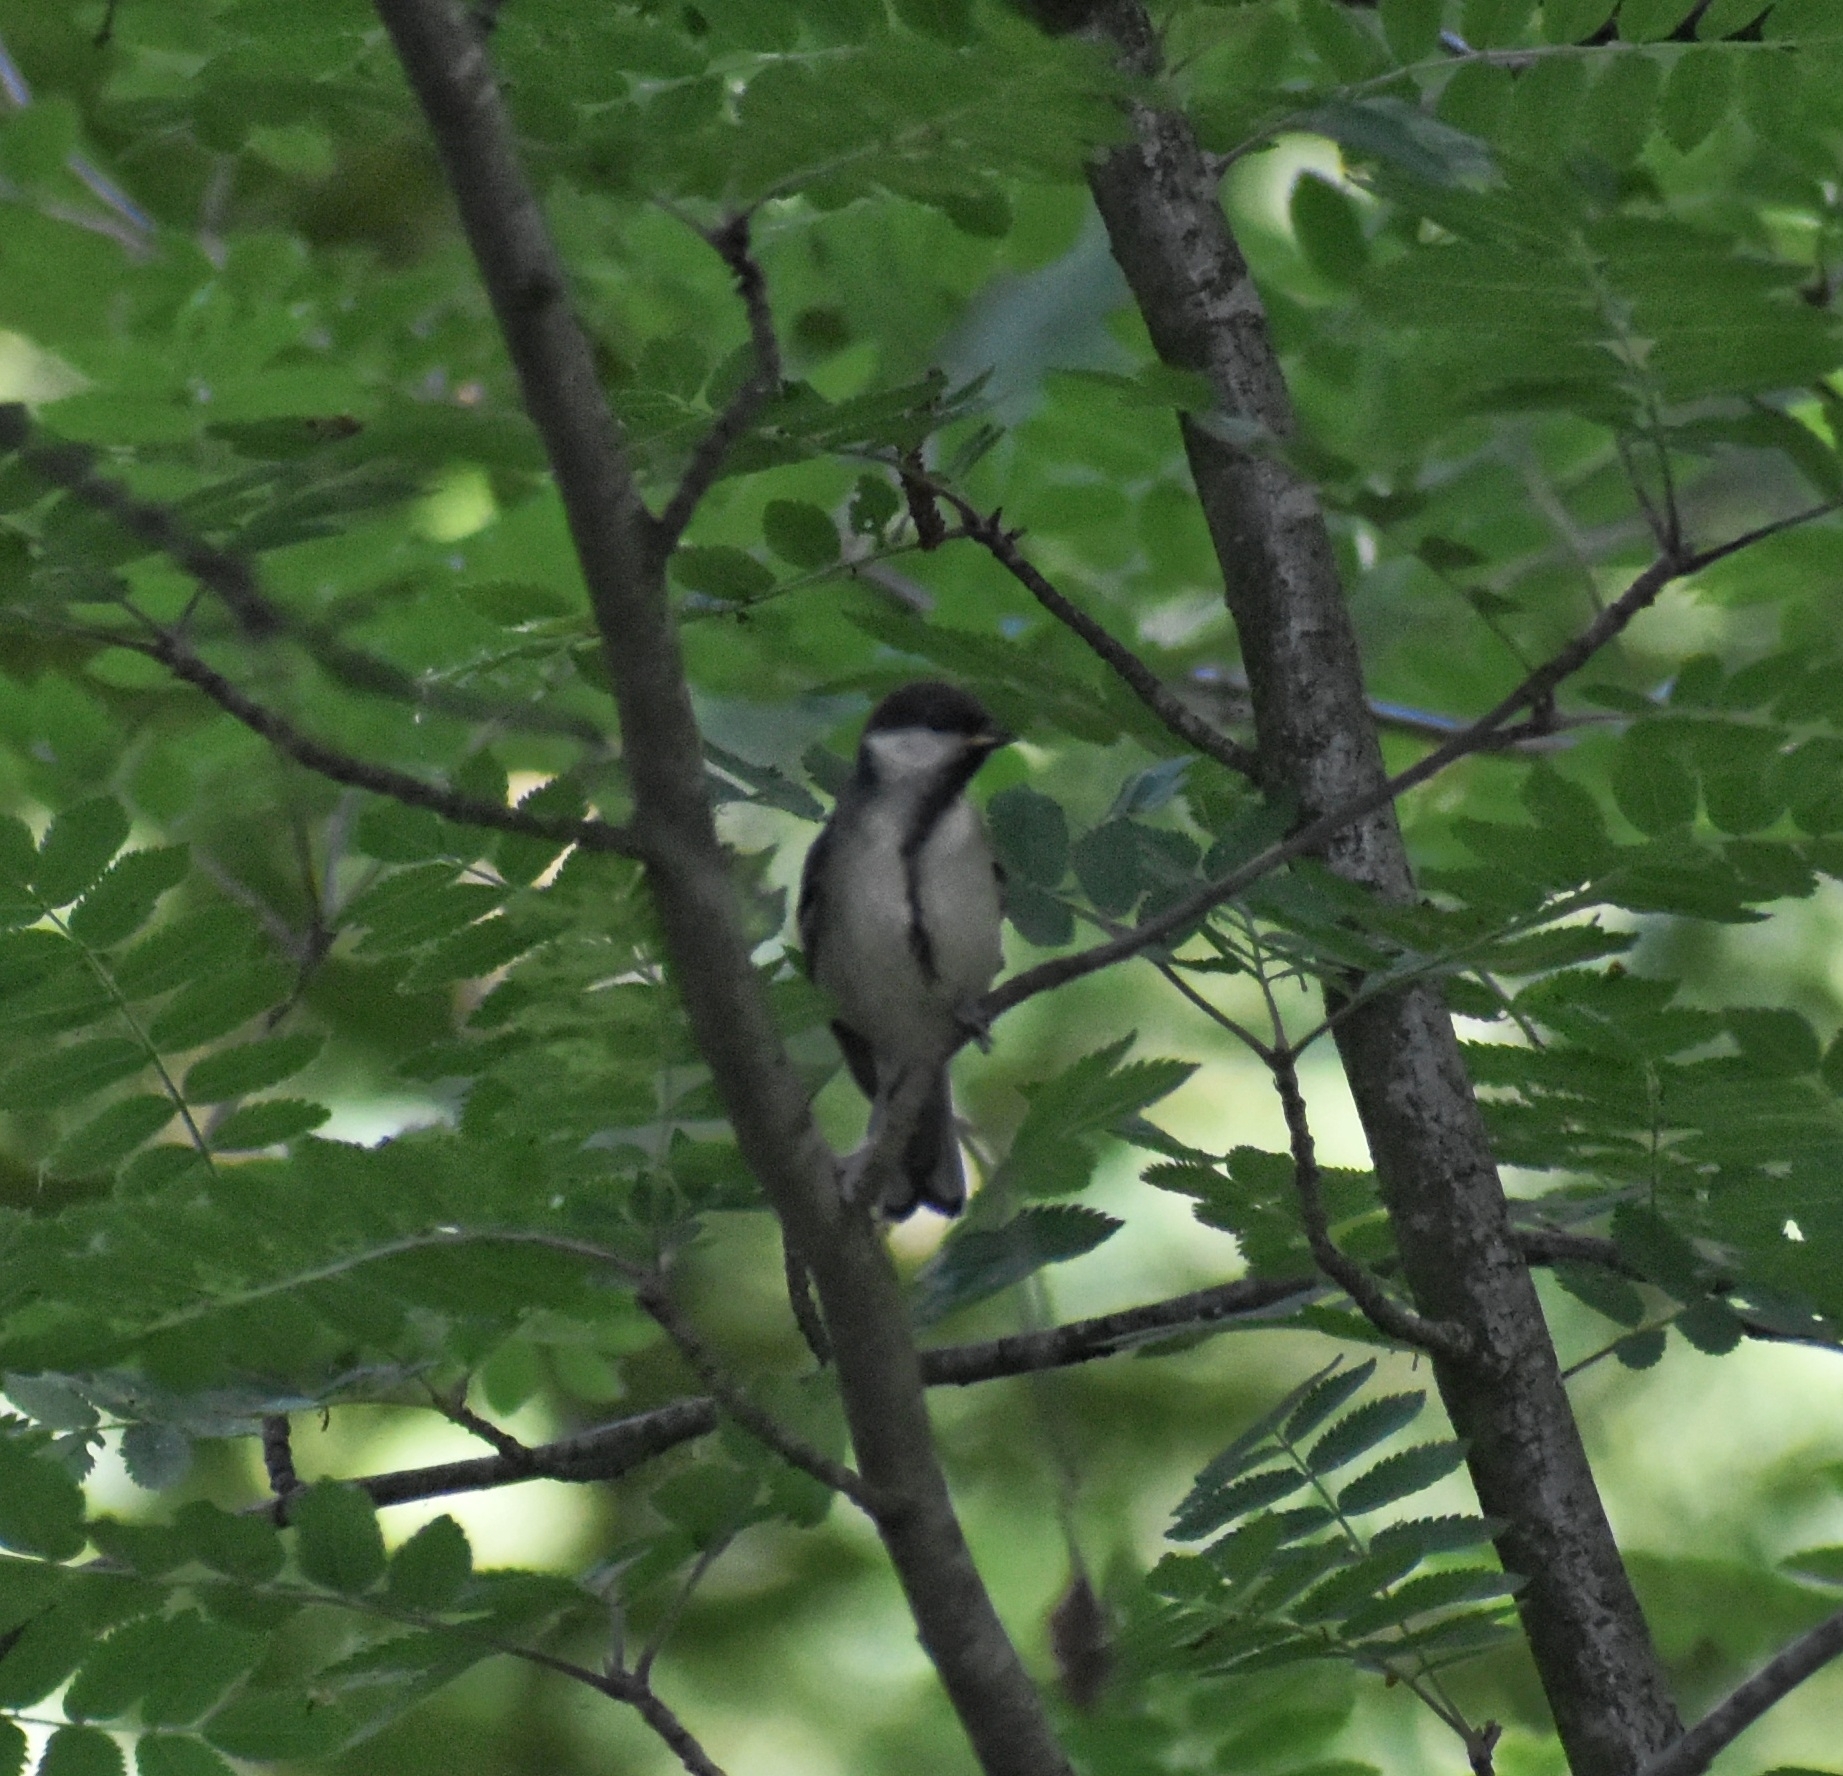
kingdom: Animalia
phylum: Chordata
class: Aves
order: Passeriformes
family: Paridae
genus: Parus
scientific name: Parus major
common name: Great tit
